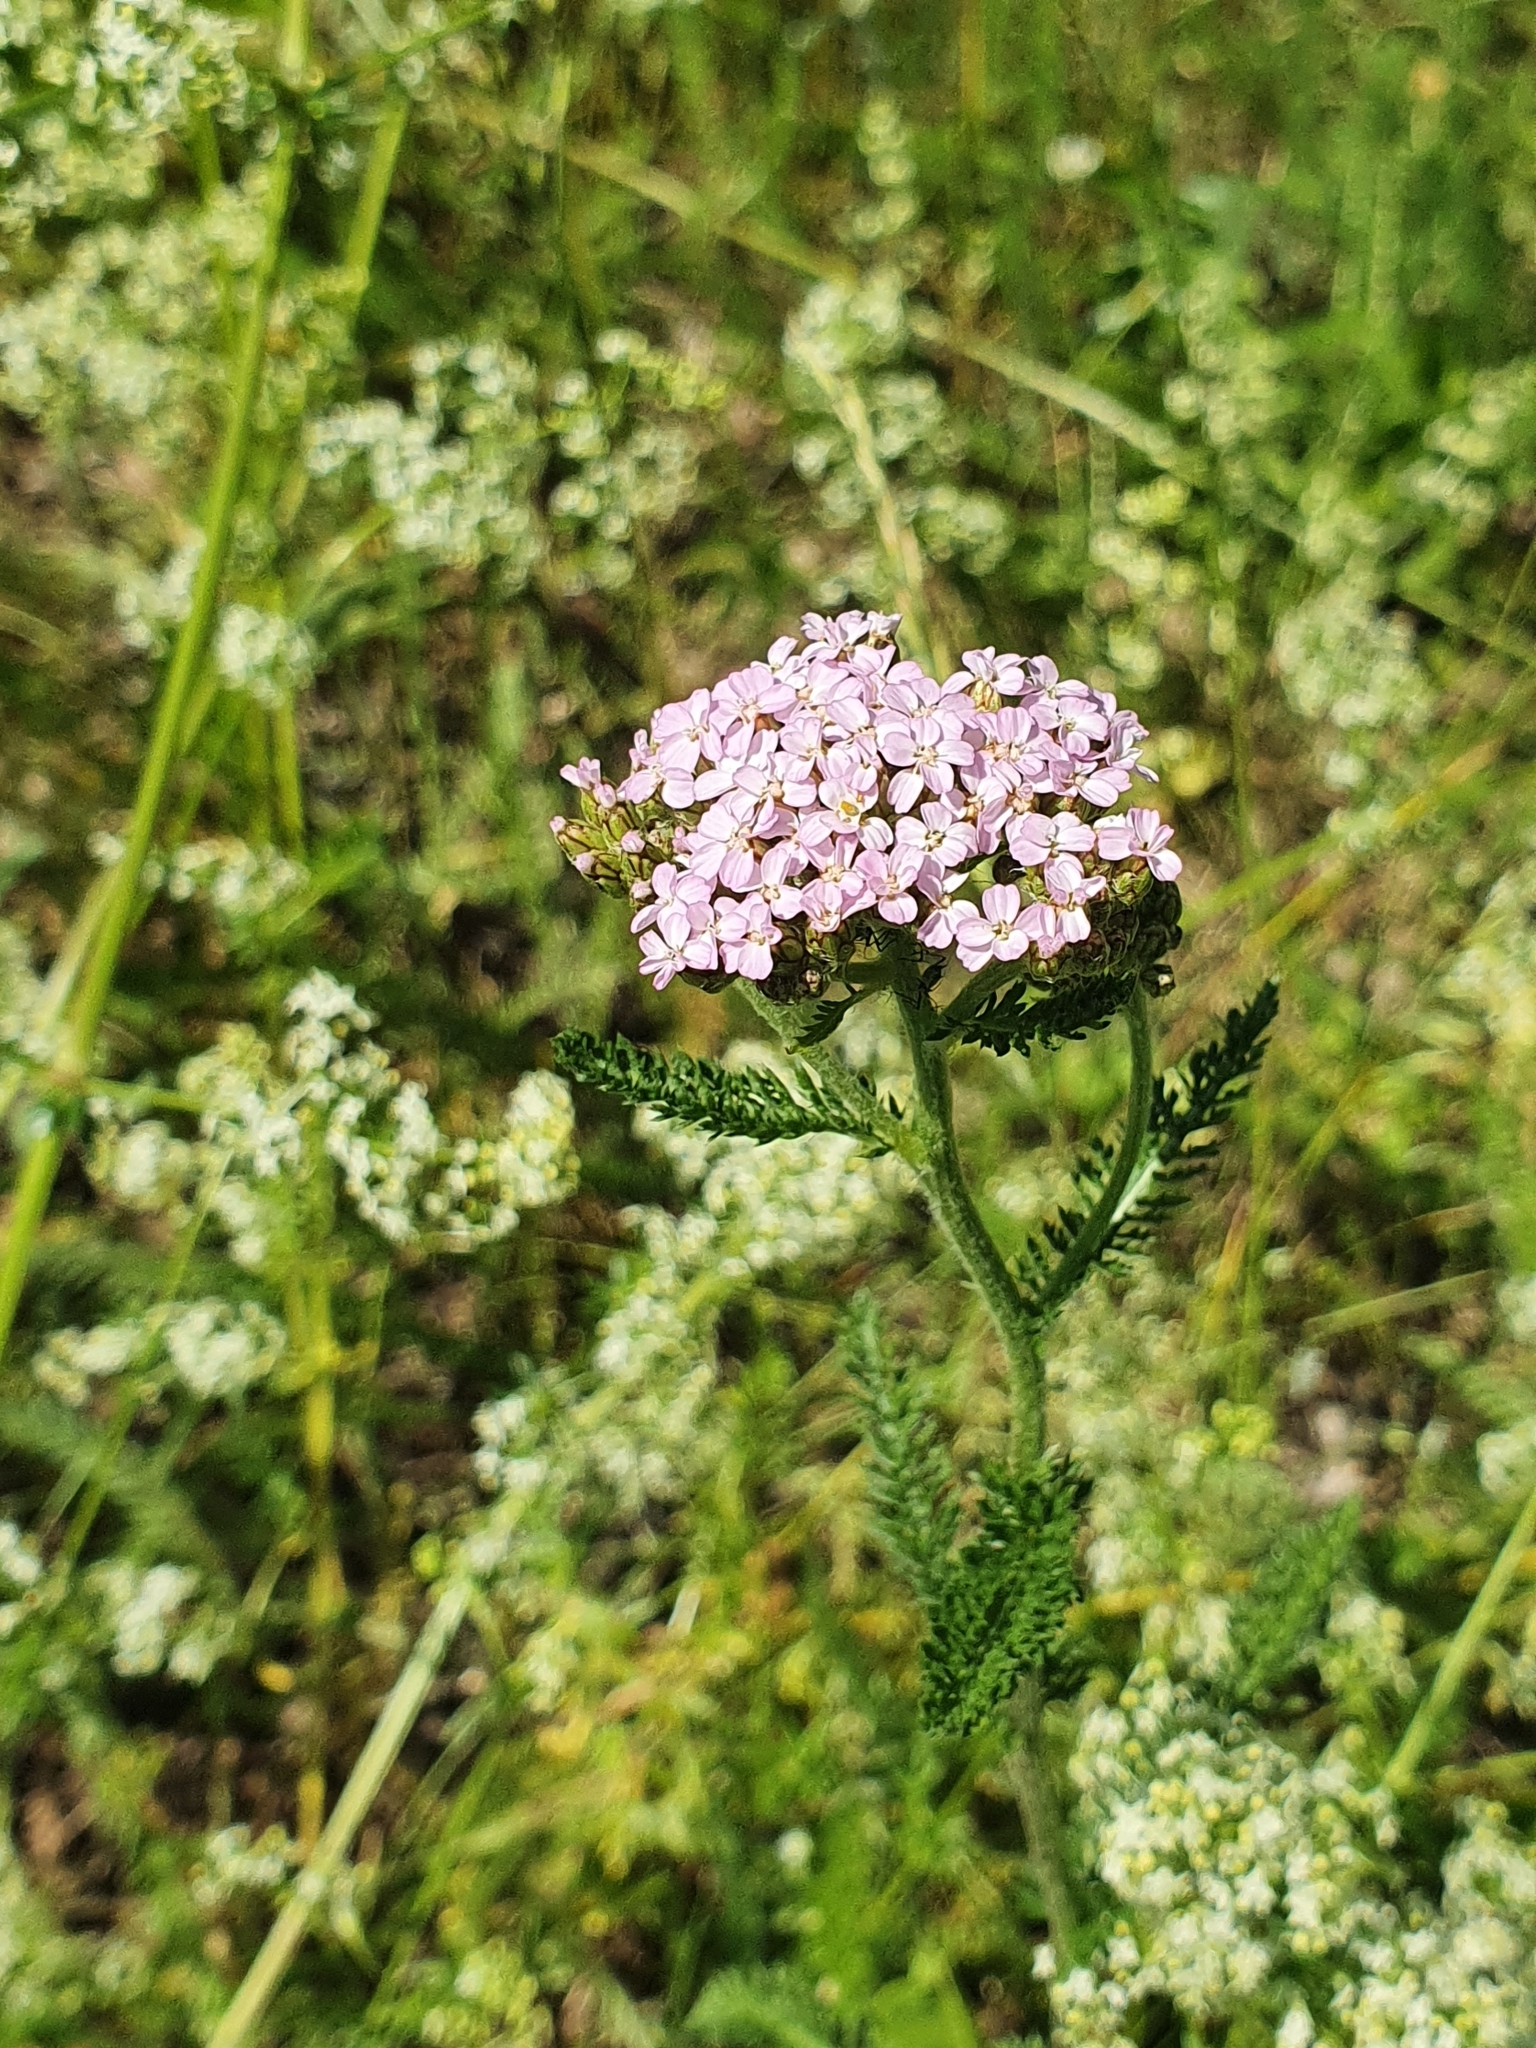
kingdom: Plantae
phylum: Tracheophyta
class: Magnoliopsida
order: Asterales
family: Asteraceae
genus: Achillea
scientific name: Achillea millefolium
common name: Yarrow
